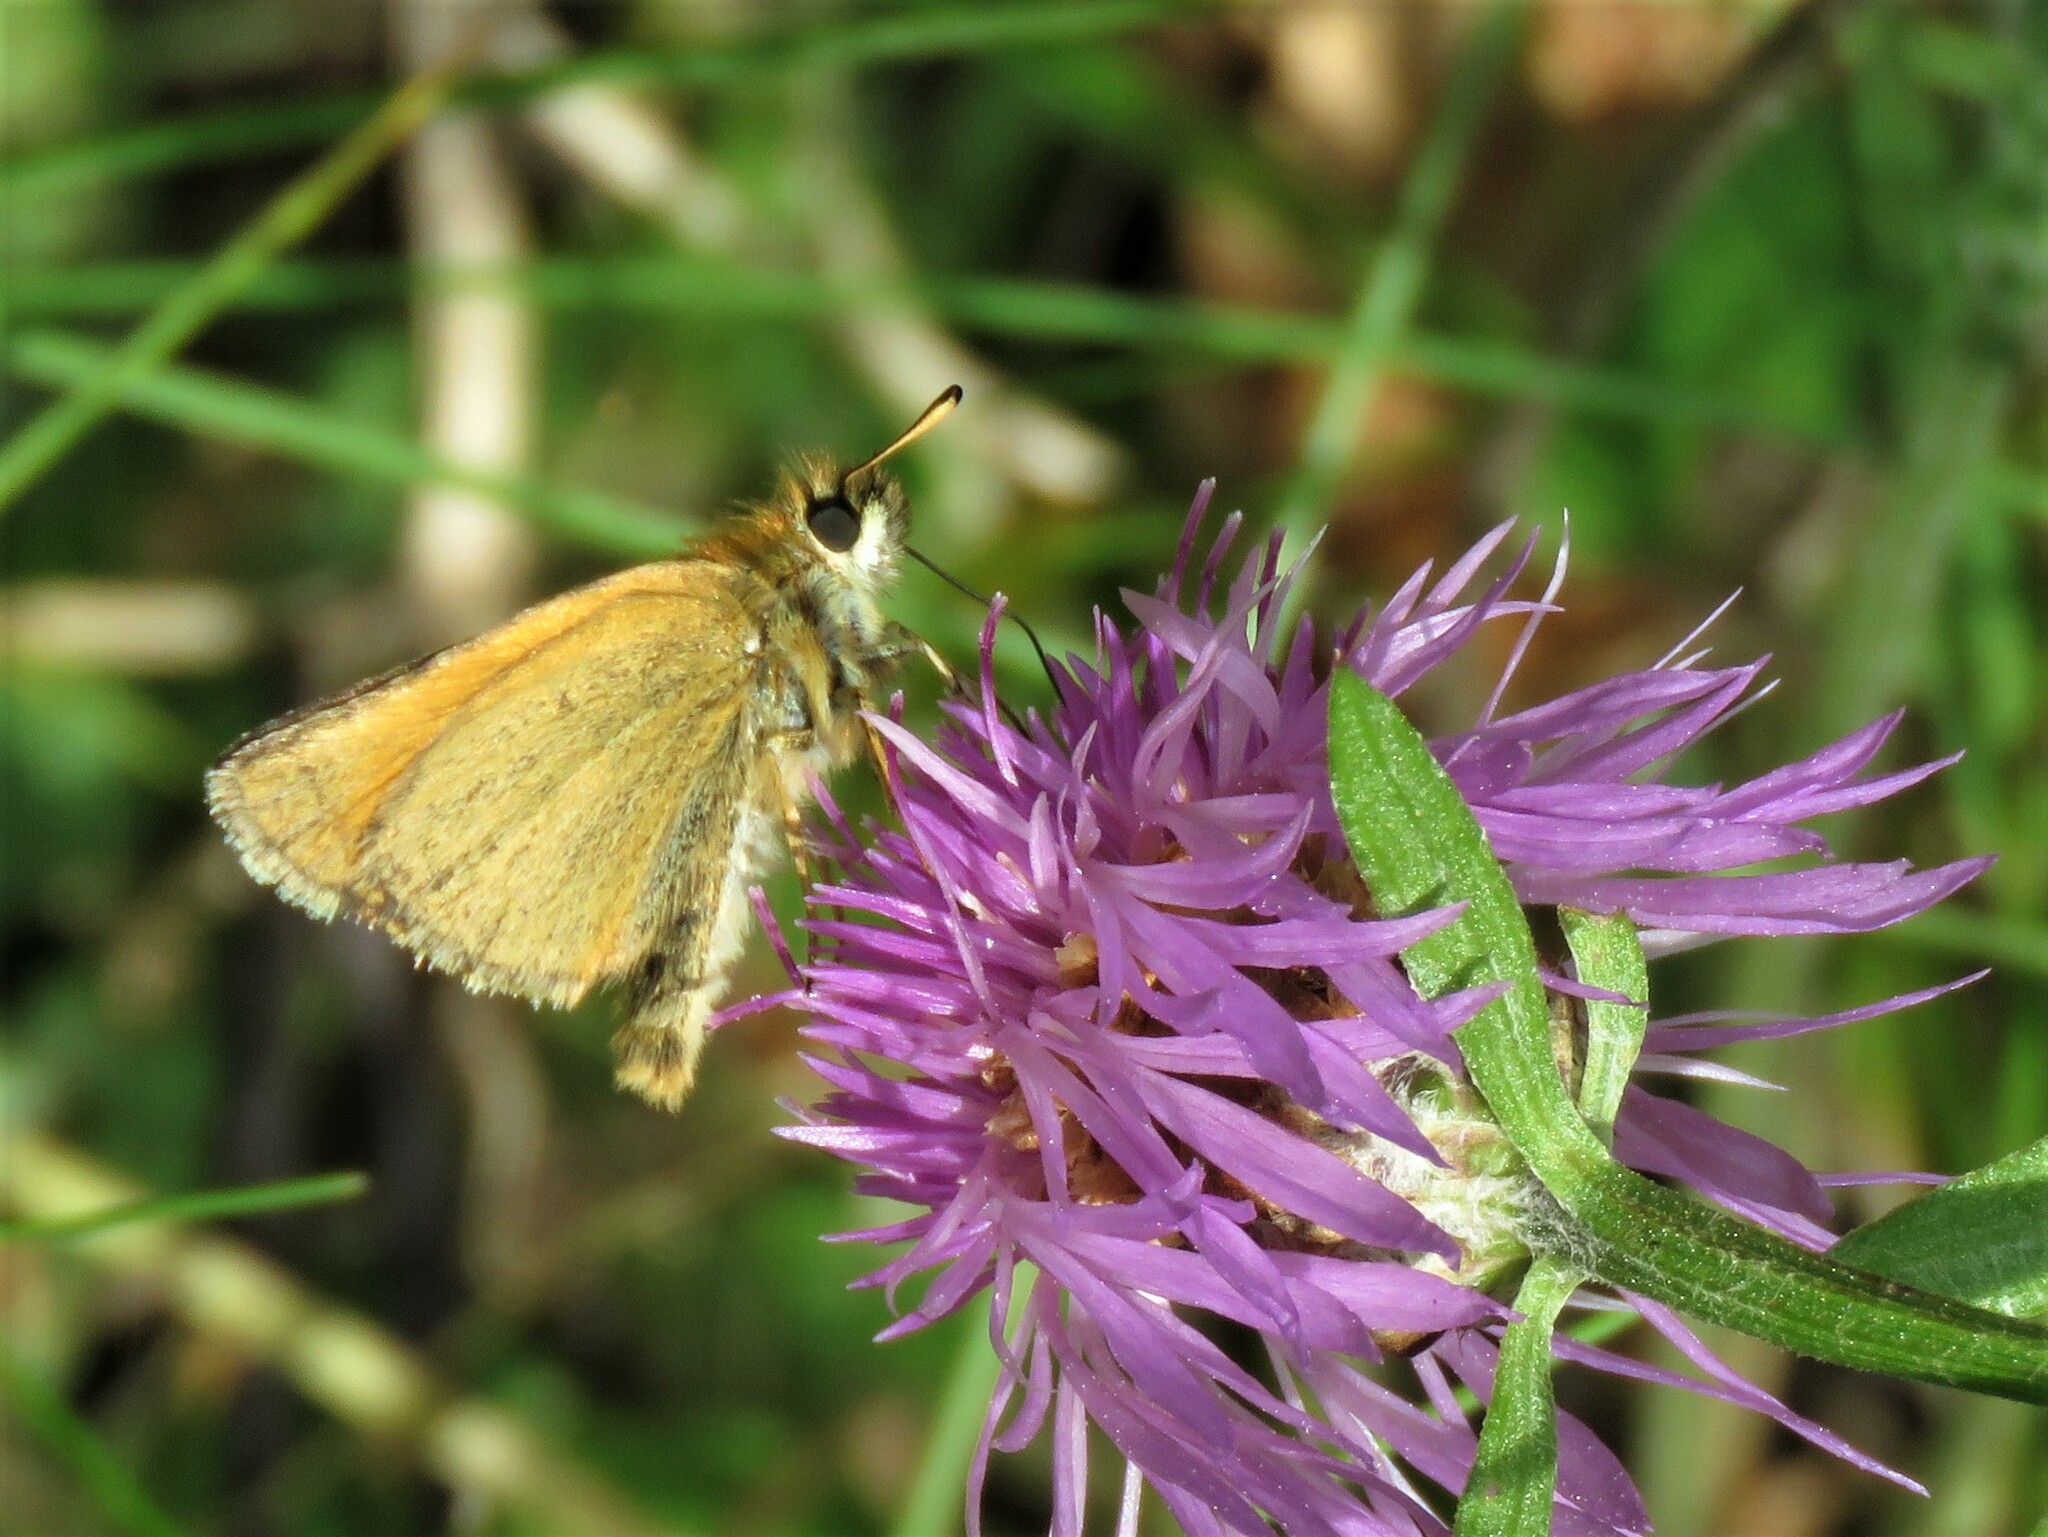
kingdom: Animalia
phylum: Arthropoda
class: Insecta
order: Lepidoptera
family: Hesperiidae
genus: Thymelicus
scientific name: Thymelicus lineola
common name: Essex skipper
